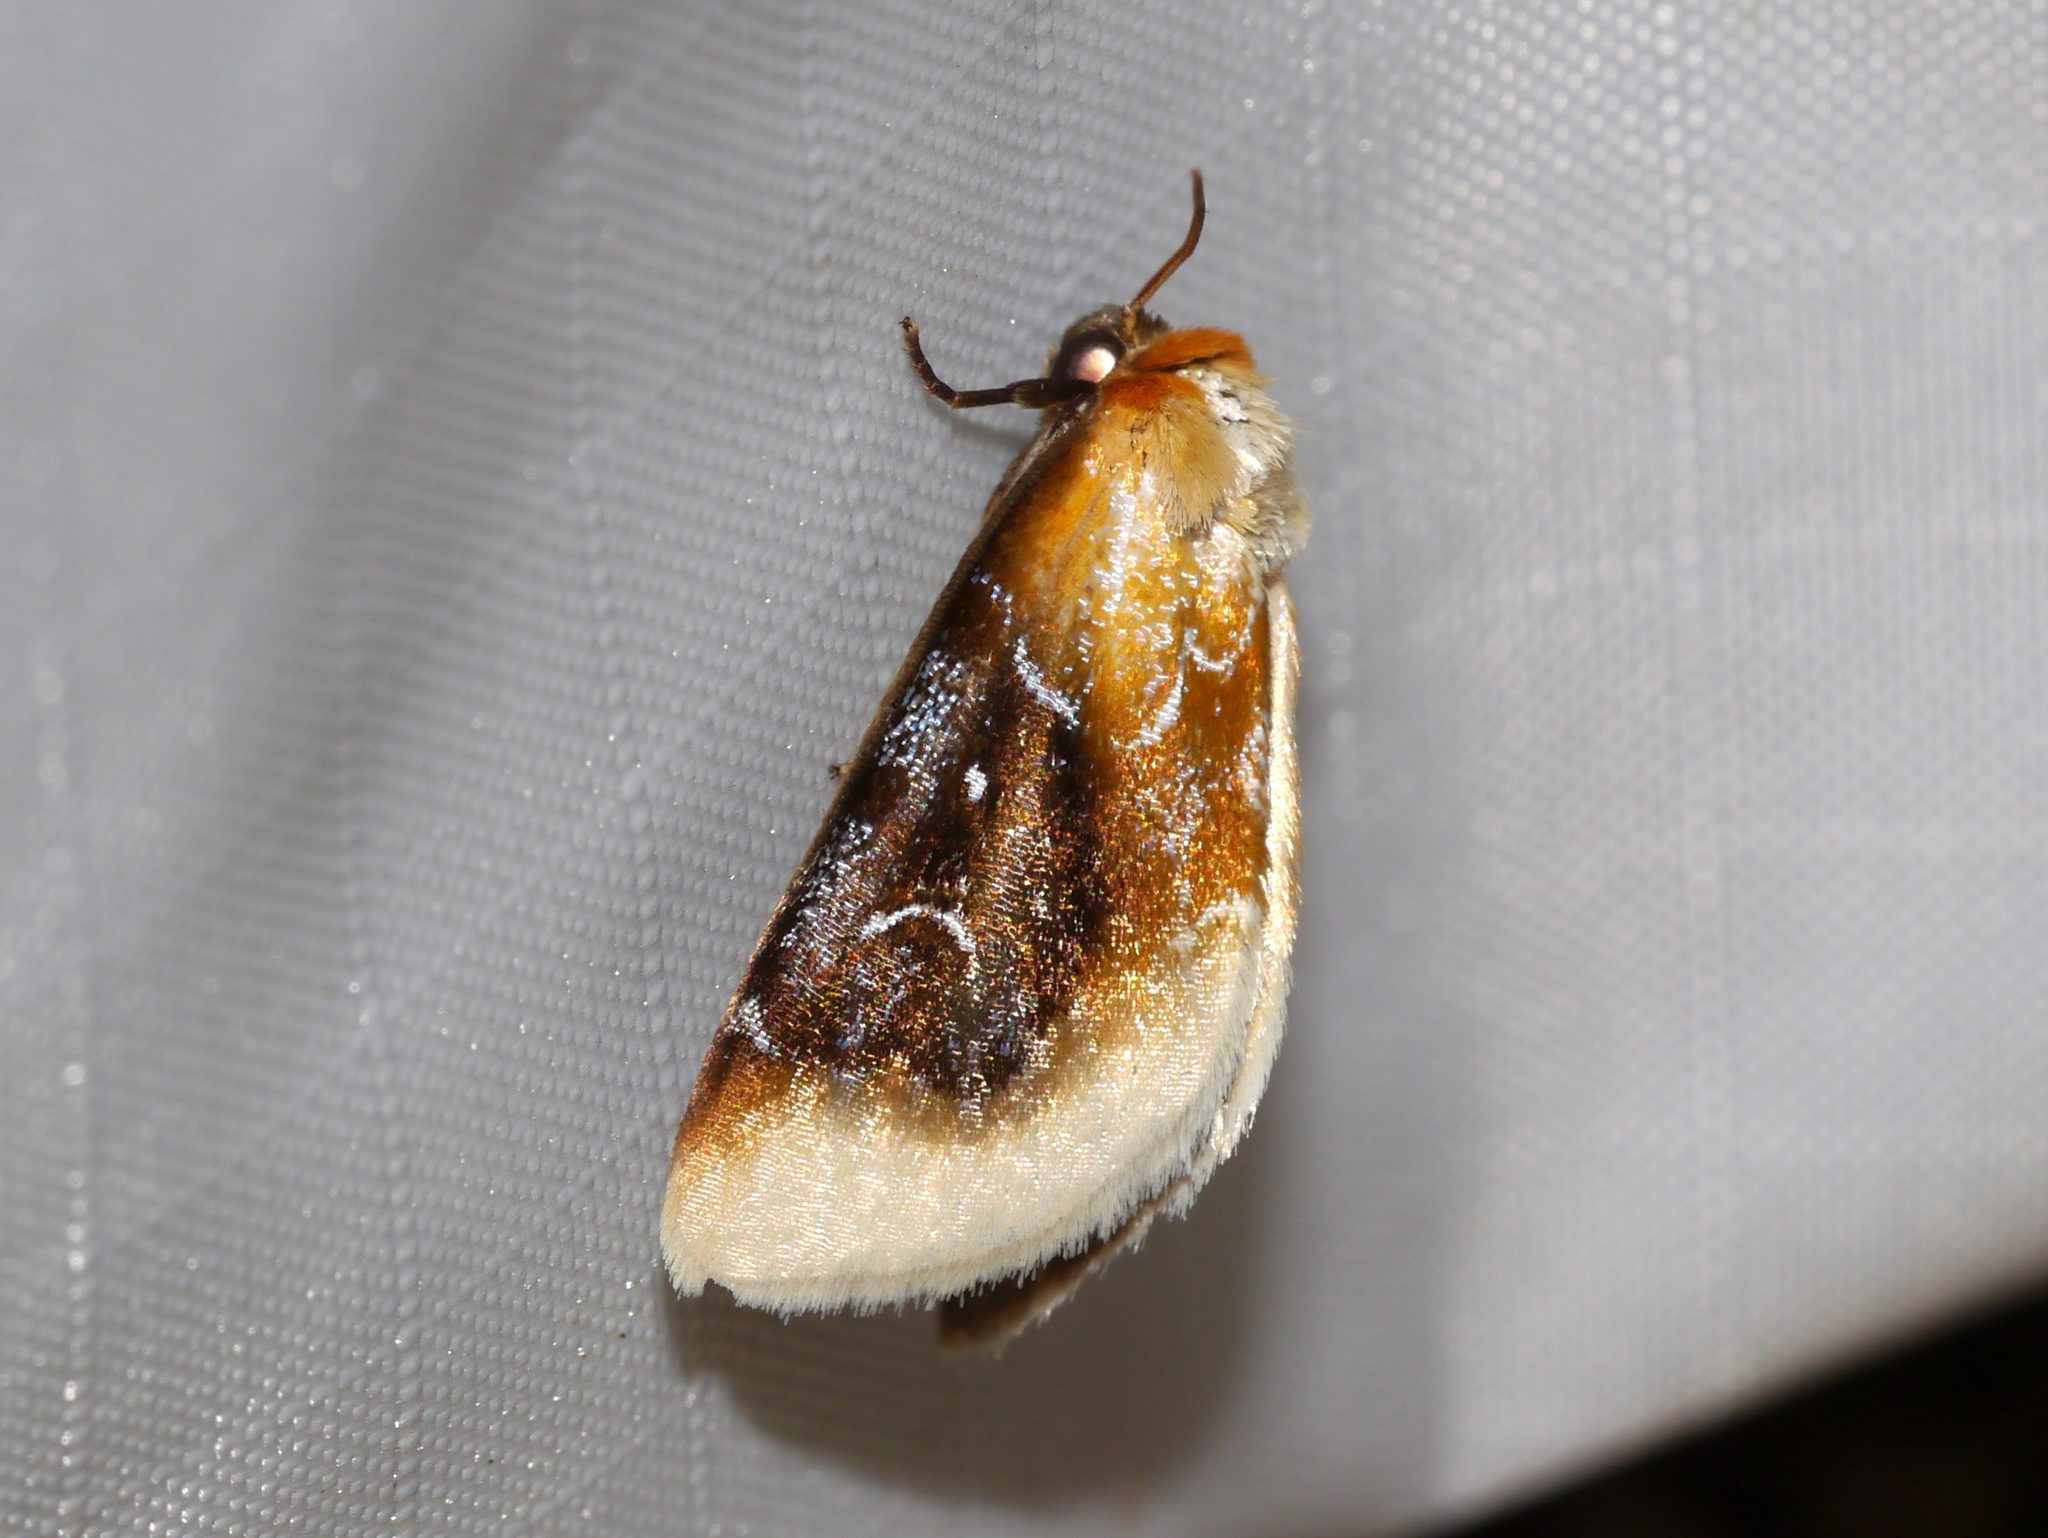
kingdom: Animalia
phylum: Arthropoda
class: Insecta
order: Lepidoptera
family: Noctuidae
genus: Chrysoecia
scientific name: Chrysoecia scira
